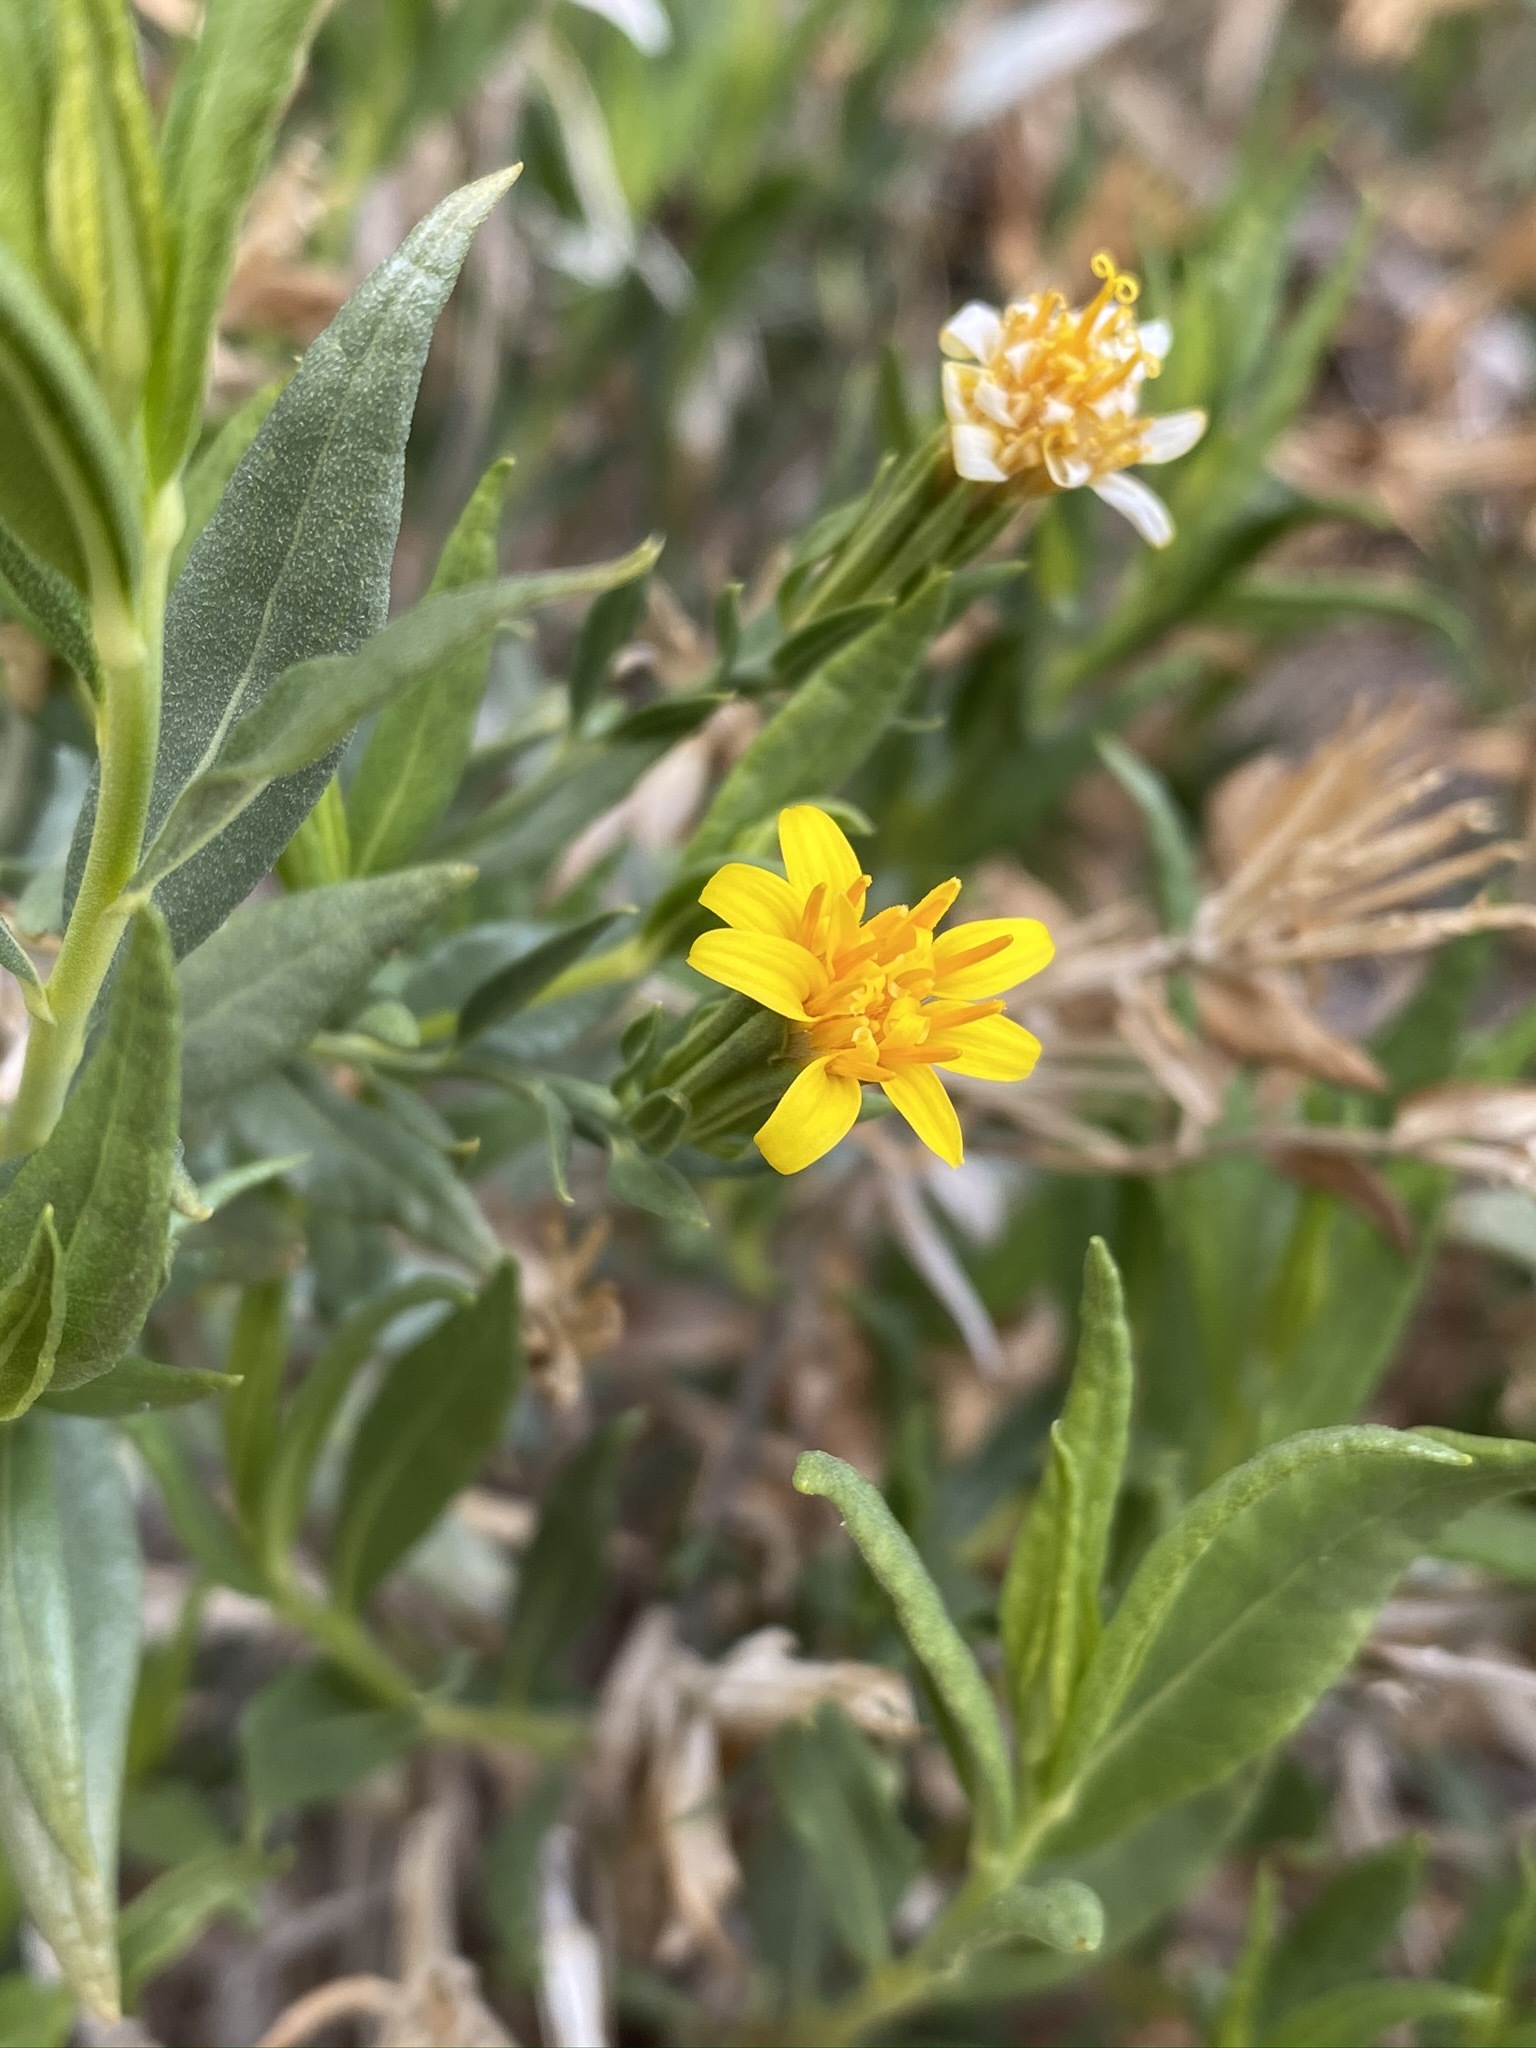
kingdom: Plantae
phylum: Tracheophyta
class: Magnoliopsida
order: Asterales
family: Asteraceae
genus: Trixis
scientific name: Trixis californica
